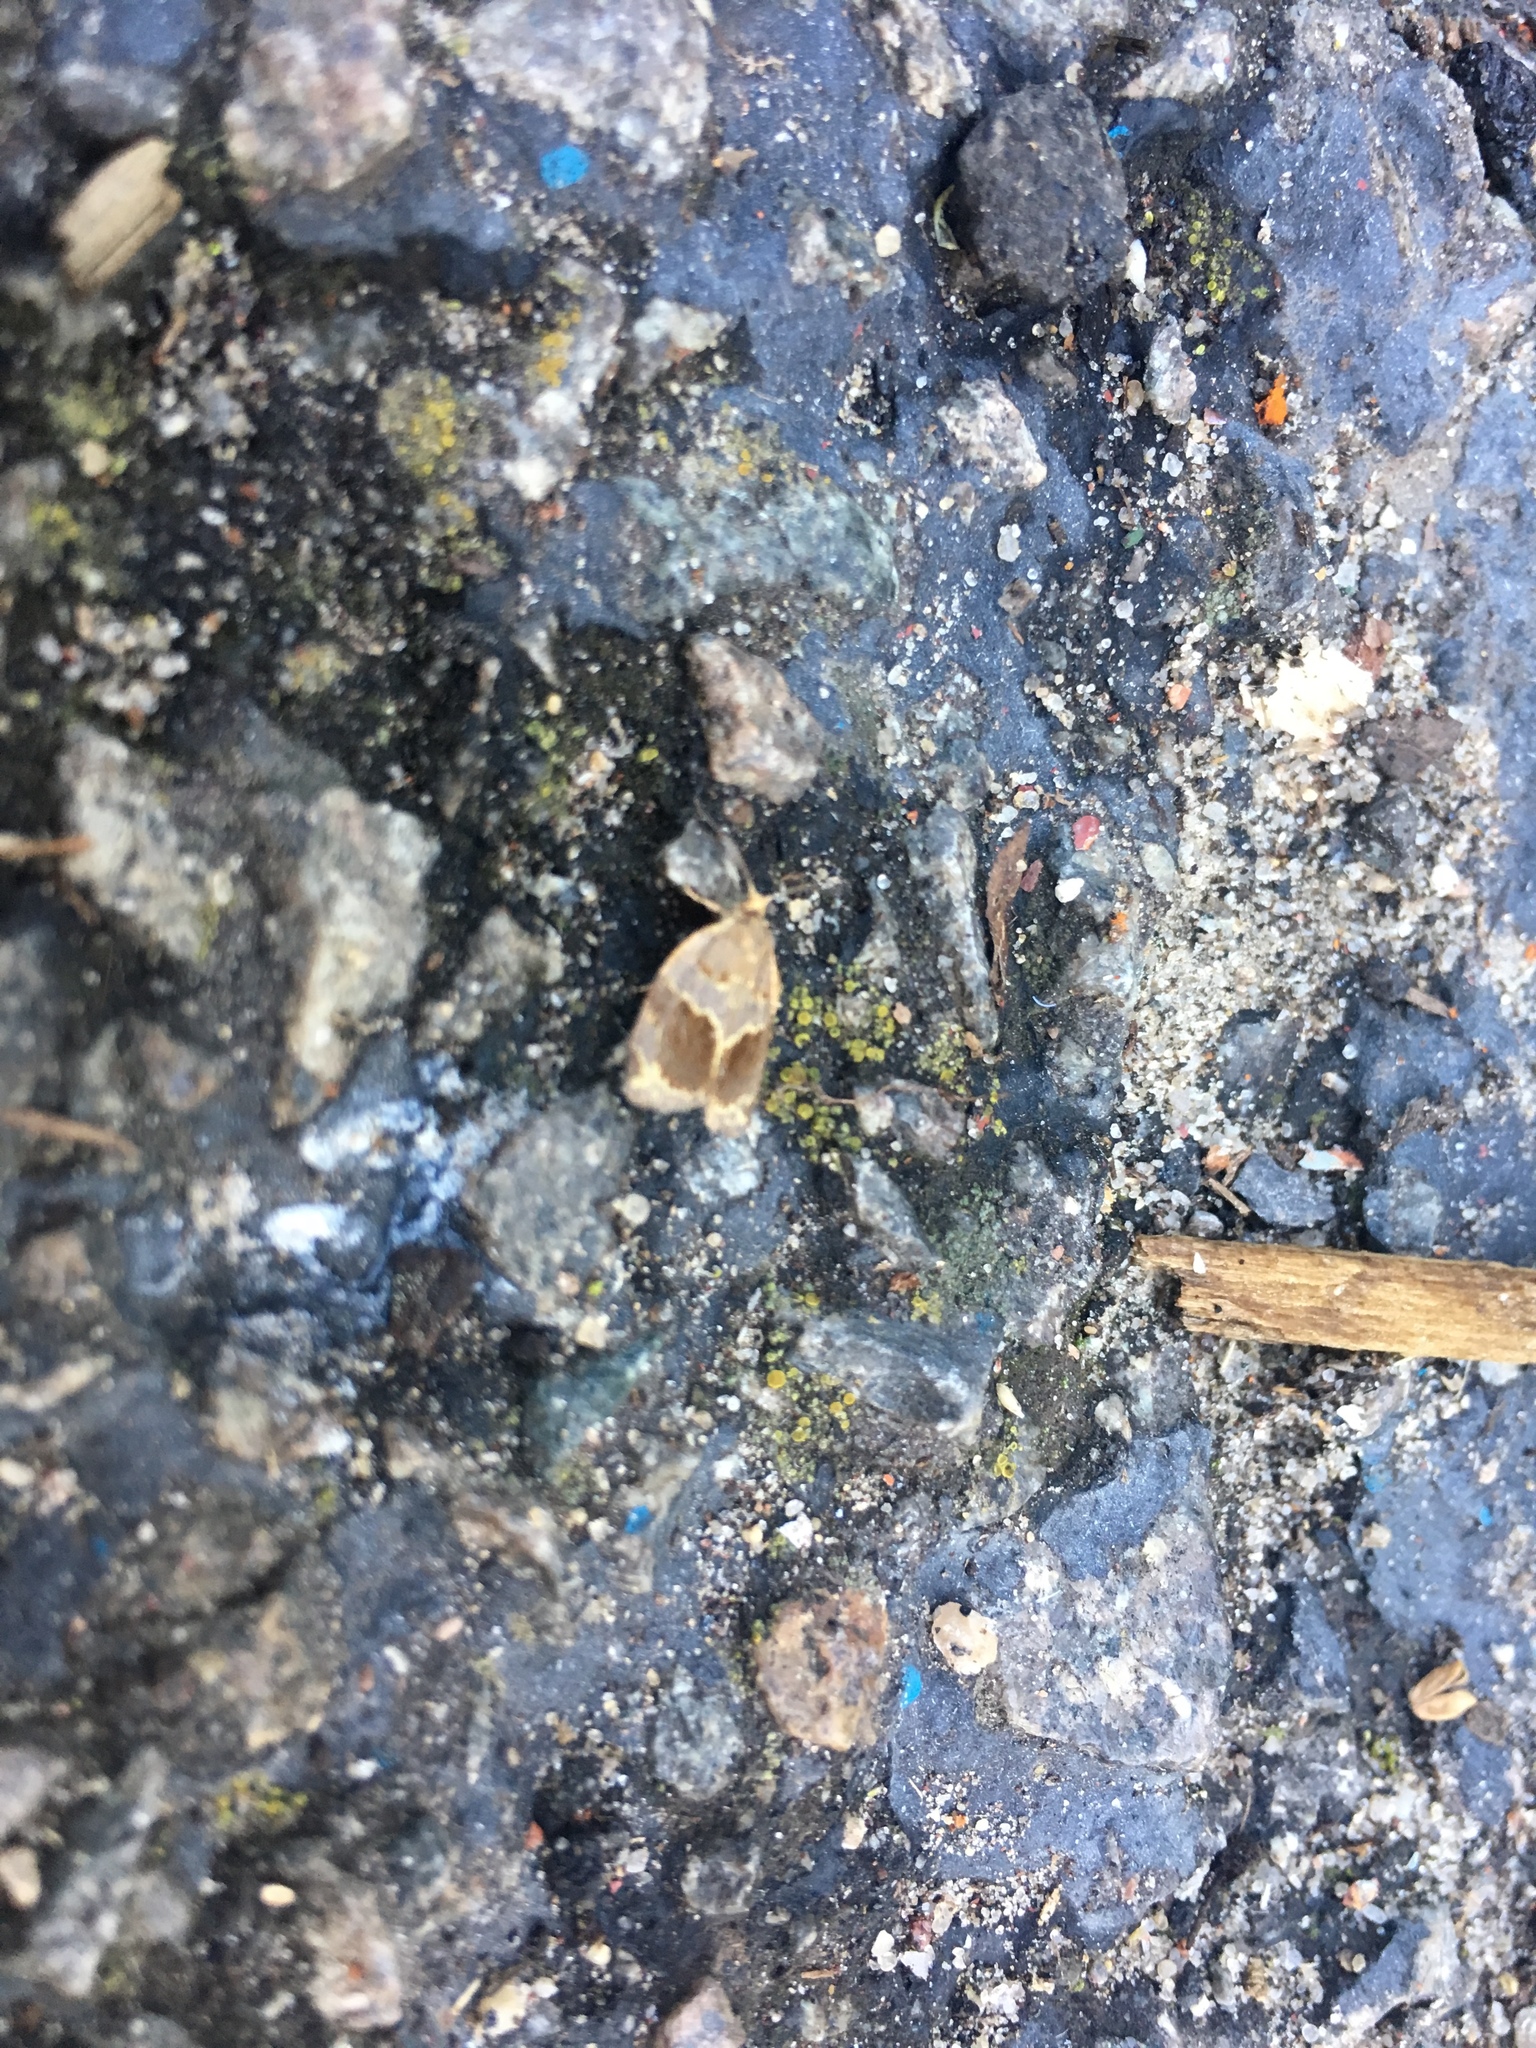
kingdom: Animalia
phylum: Arthropoda
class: Insecta
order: Lepidoptera
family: Tortricidae
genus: Clepsis
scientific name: Clepsis dumicolana
